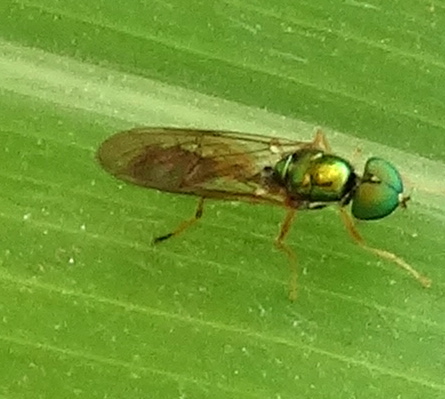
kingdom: Animalia
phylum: Arthropoda
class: Insecta
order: Diptera
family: Stratiomyidae
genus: Sargus
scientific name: Sargus
